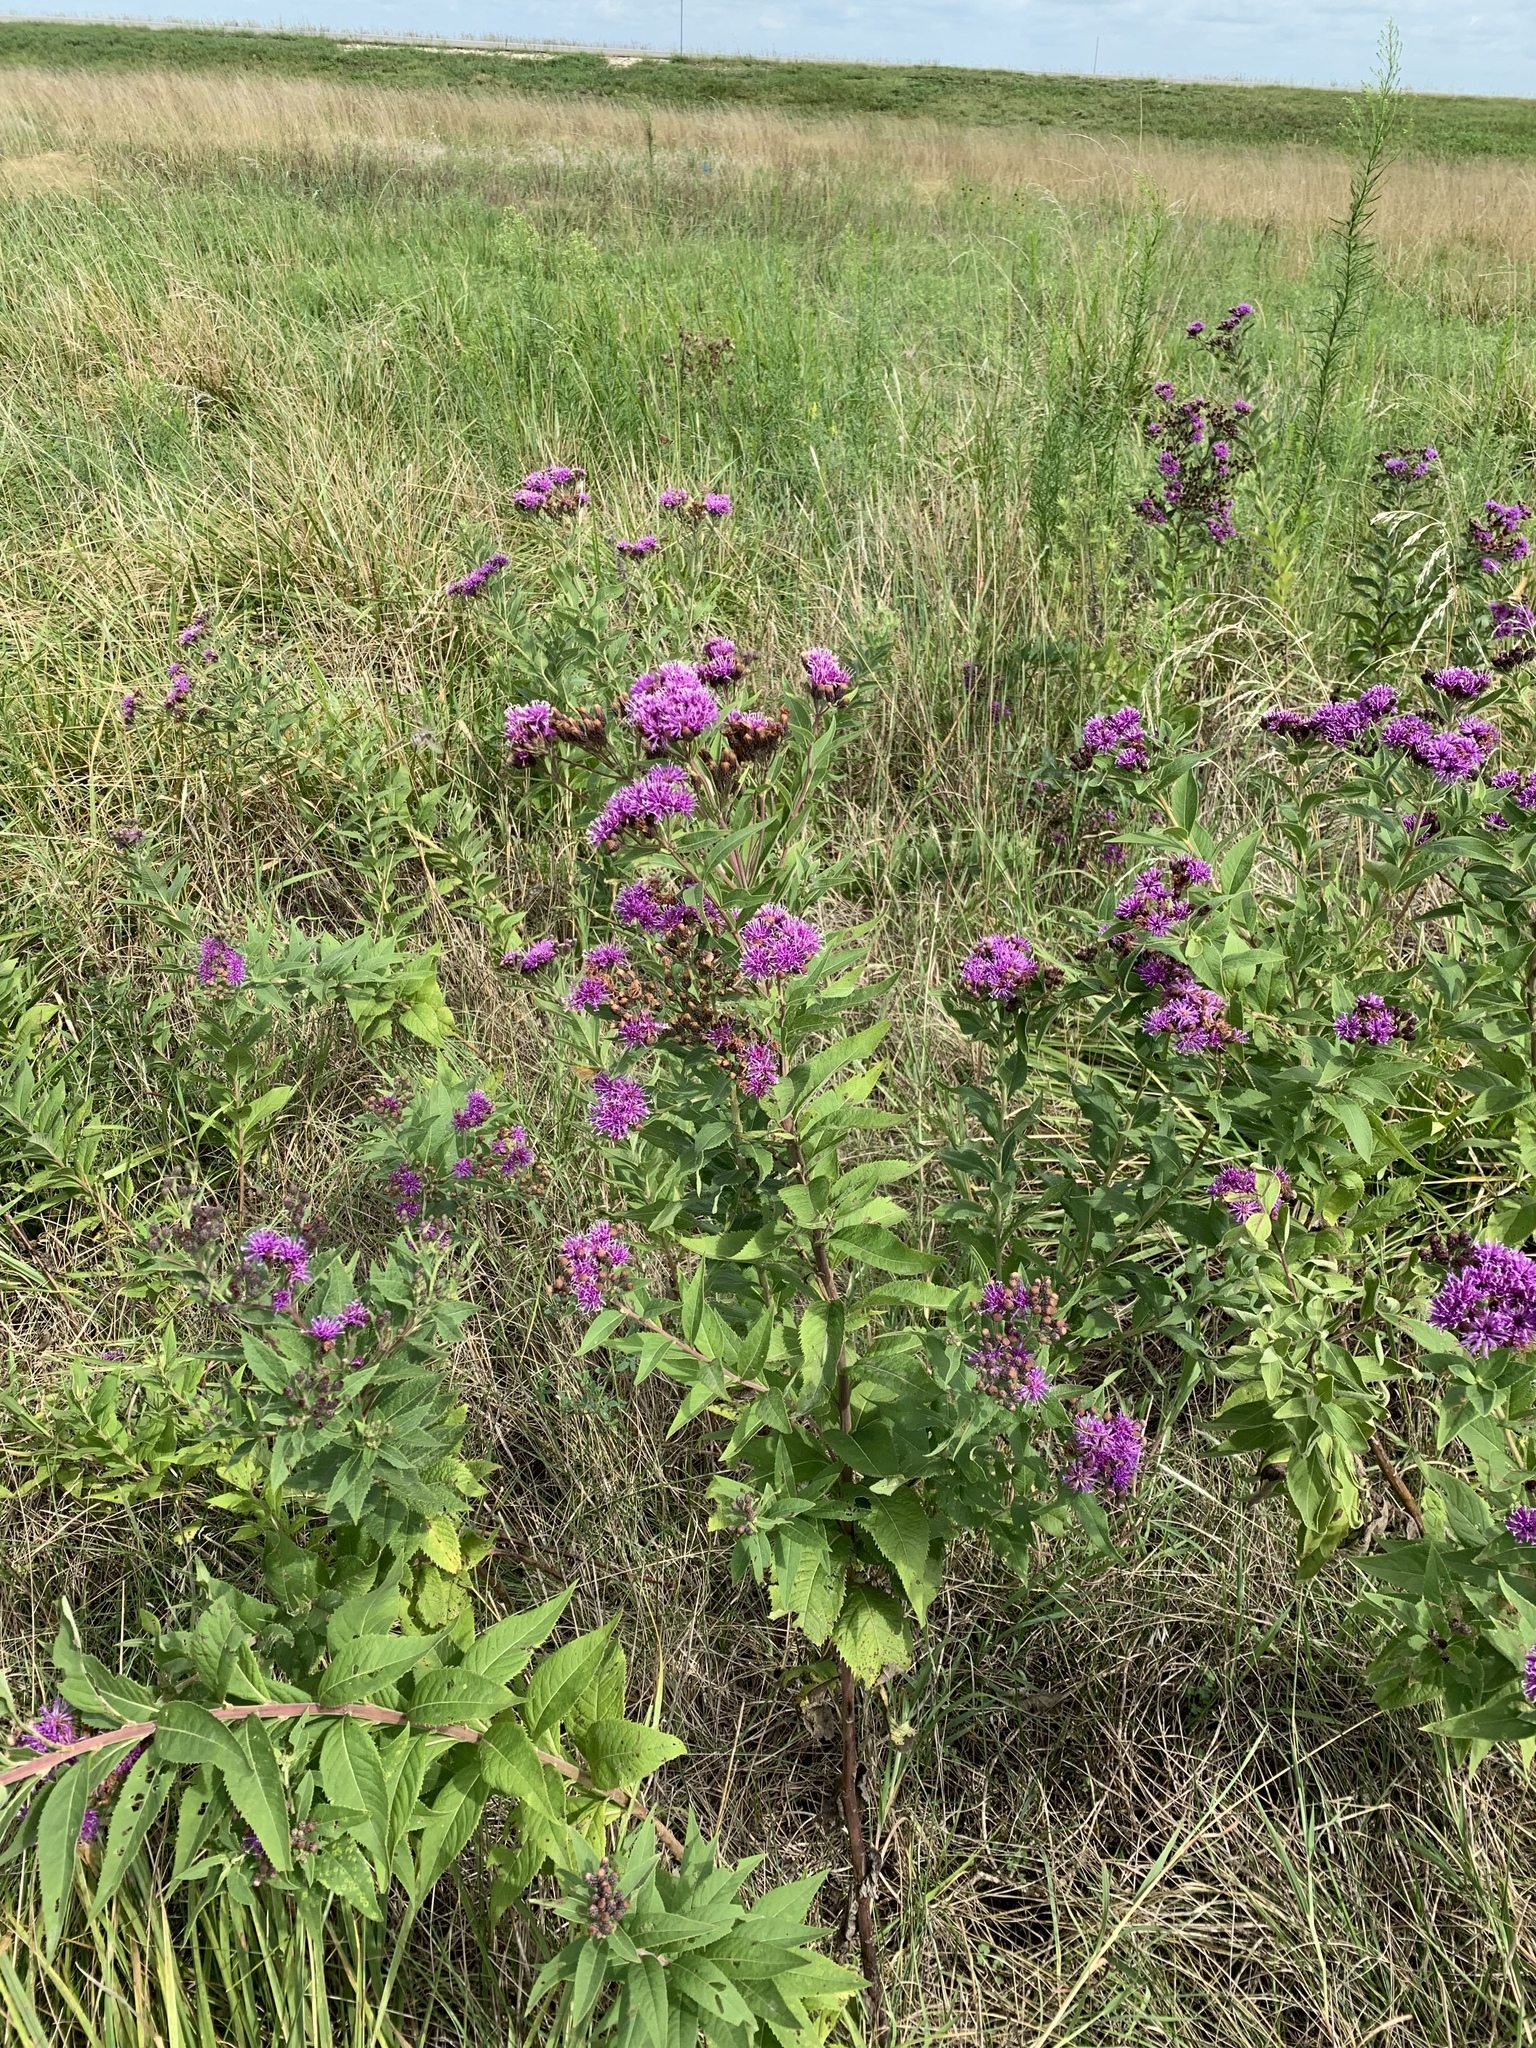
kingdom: Plantae
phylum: Tracheophyta
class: Magnoliopsida
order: Asterales
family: Asteraceae
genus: Vernonia
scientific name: Vernonia baldwinii
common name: Western ironweed
